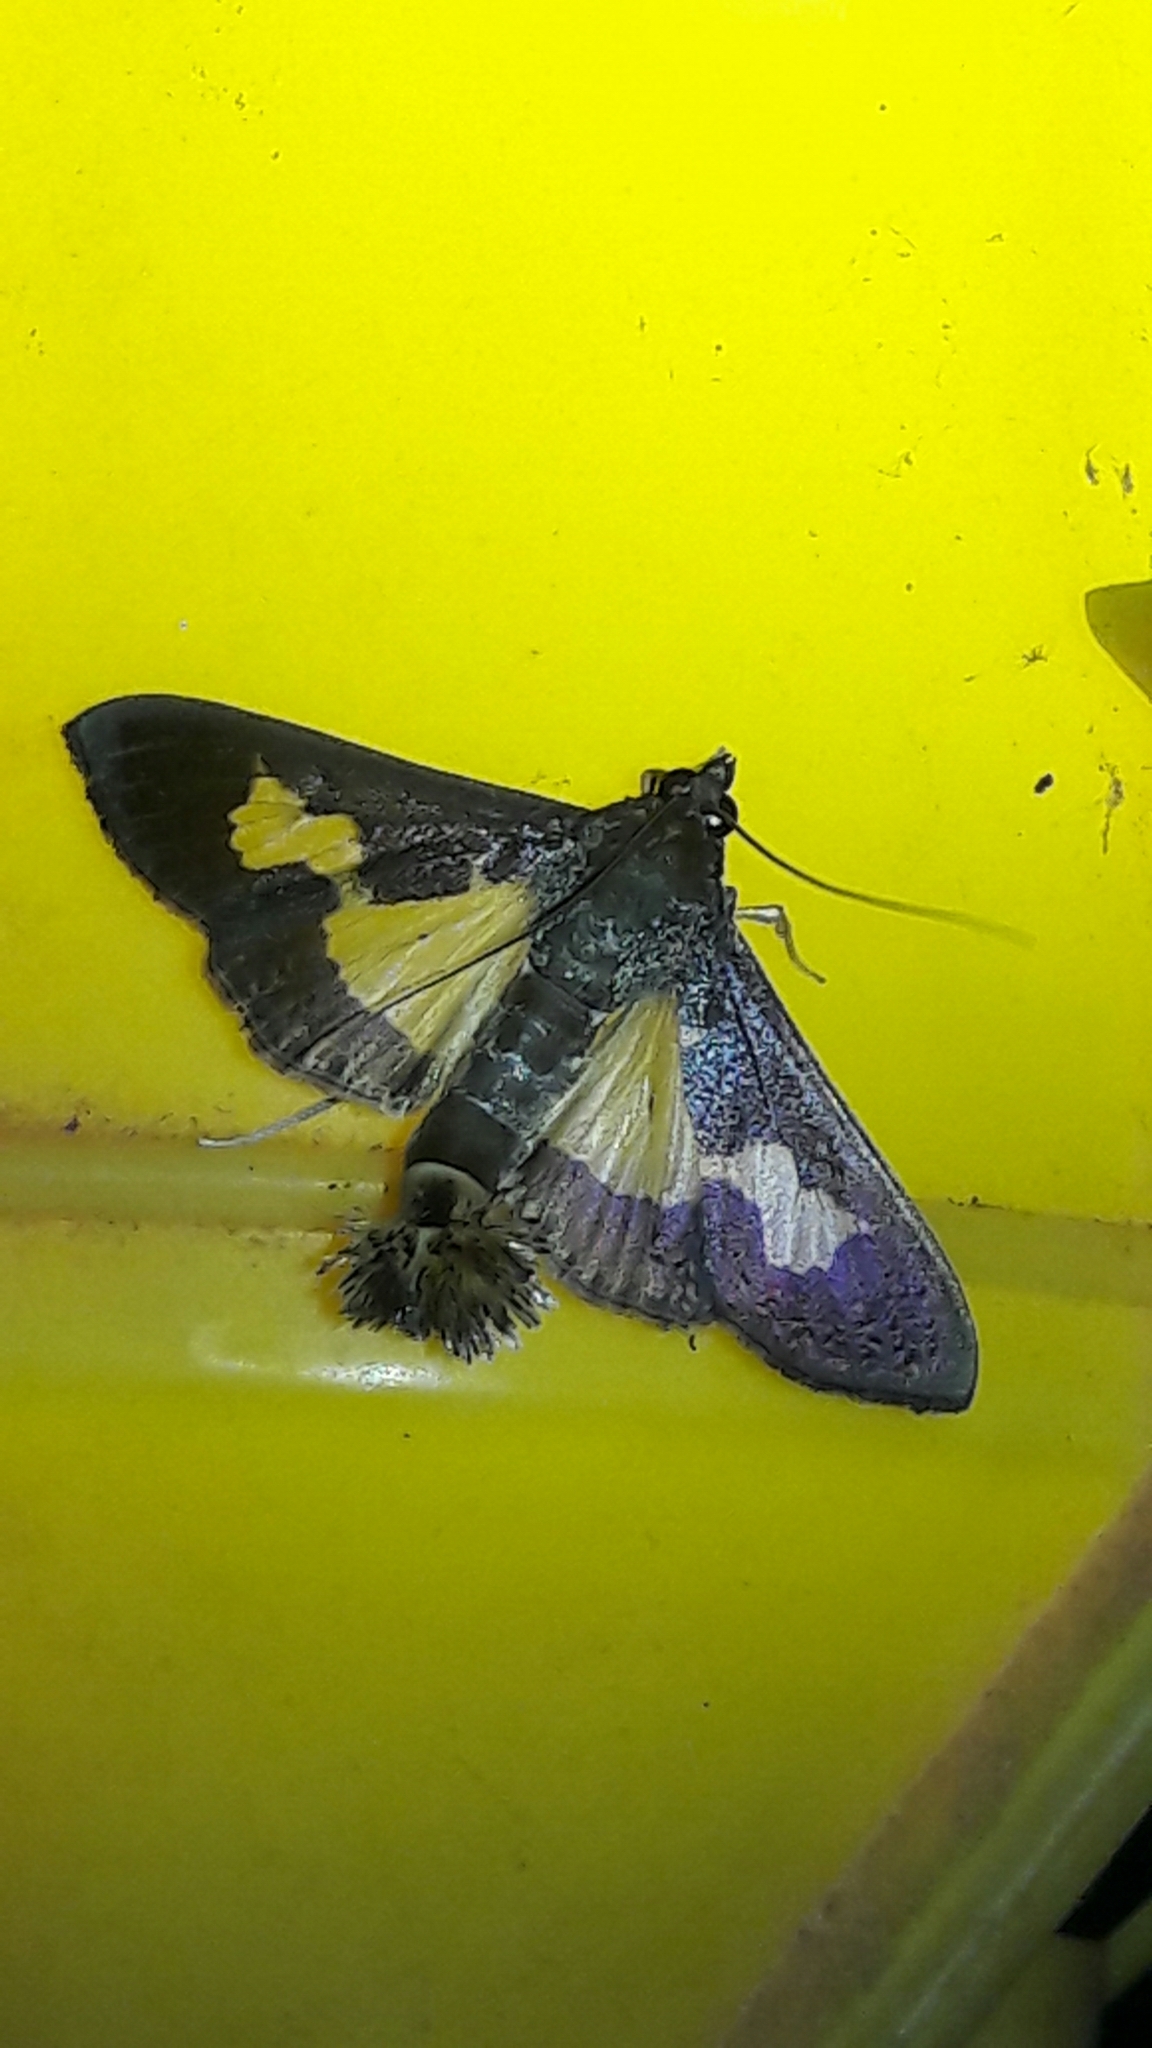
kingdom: Animalia
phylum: Arthropoda
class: Insecta
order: Lepidoptera
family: Crambidae
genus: Cryptographis
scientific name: Cryptographis nitidalis
